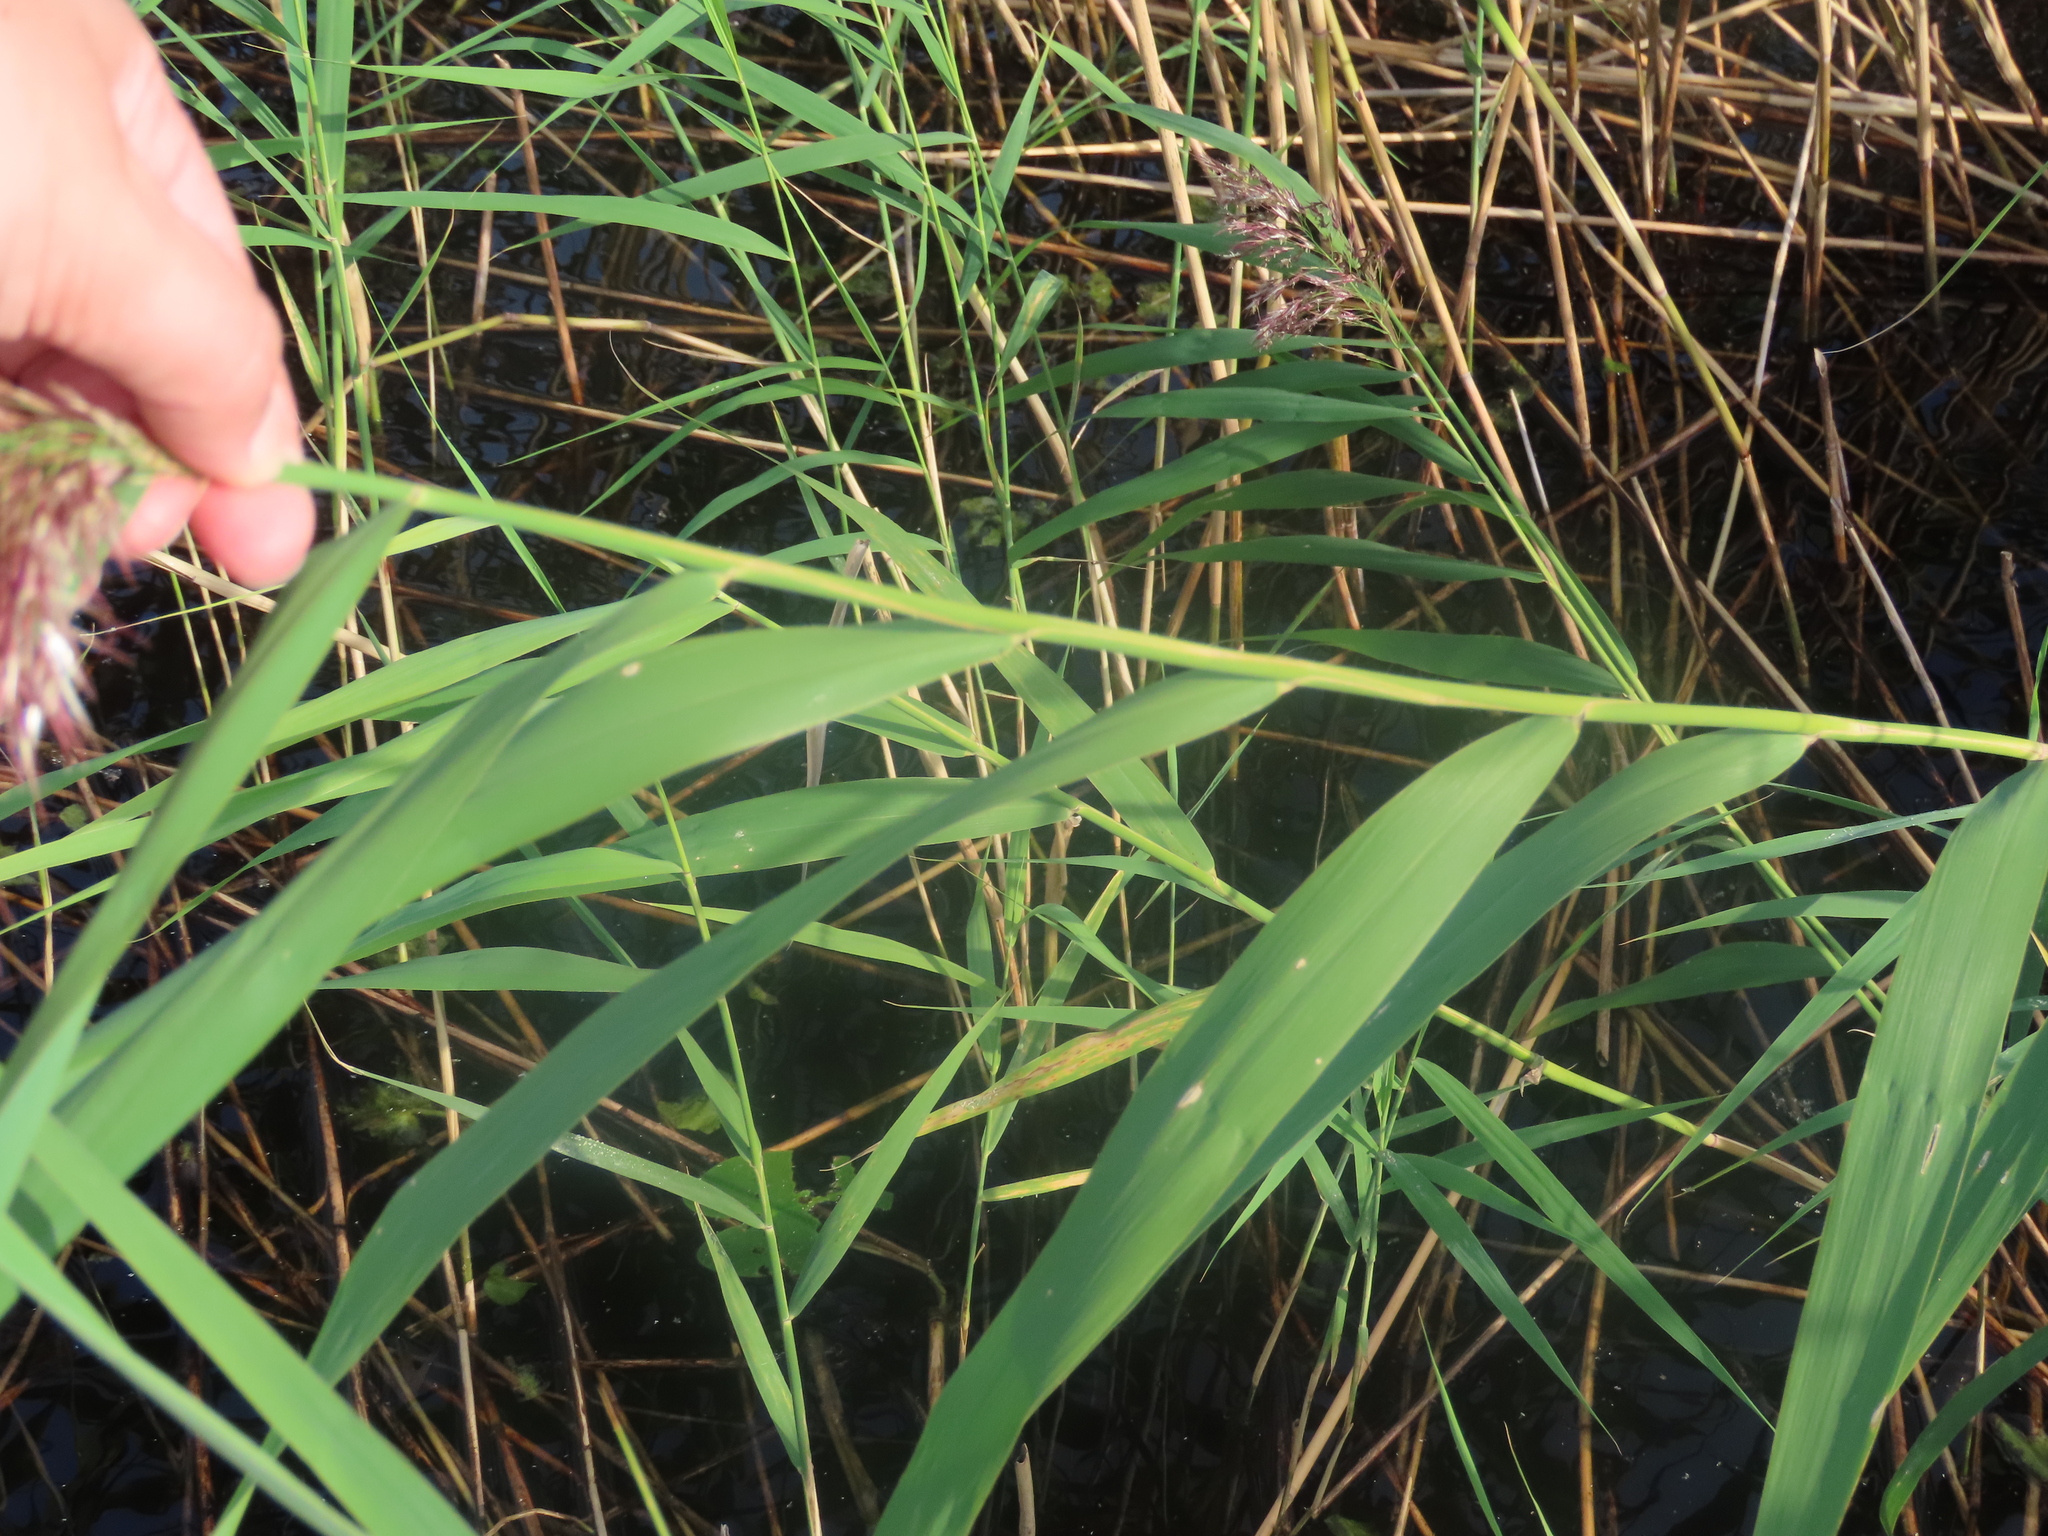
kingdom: Plantae
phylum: Tracheophyta
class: Liliopsida
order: Poales
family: Poaceae
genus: Phragmites
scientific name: Phragmites australis
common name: Common reed
